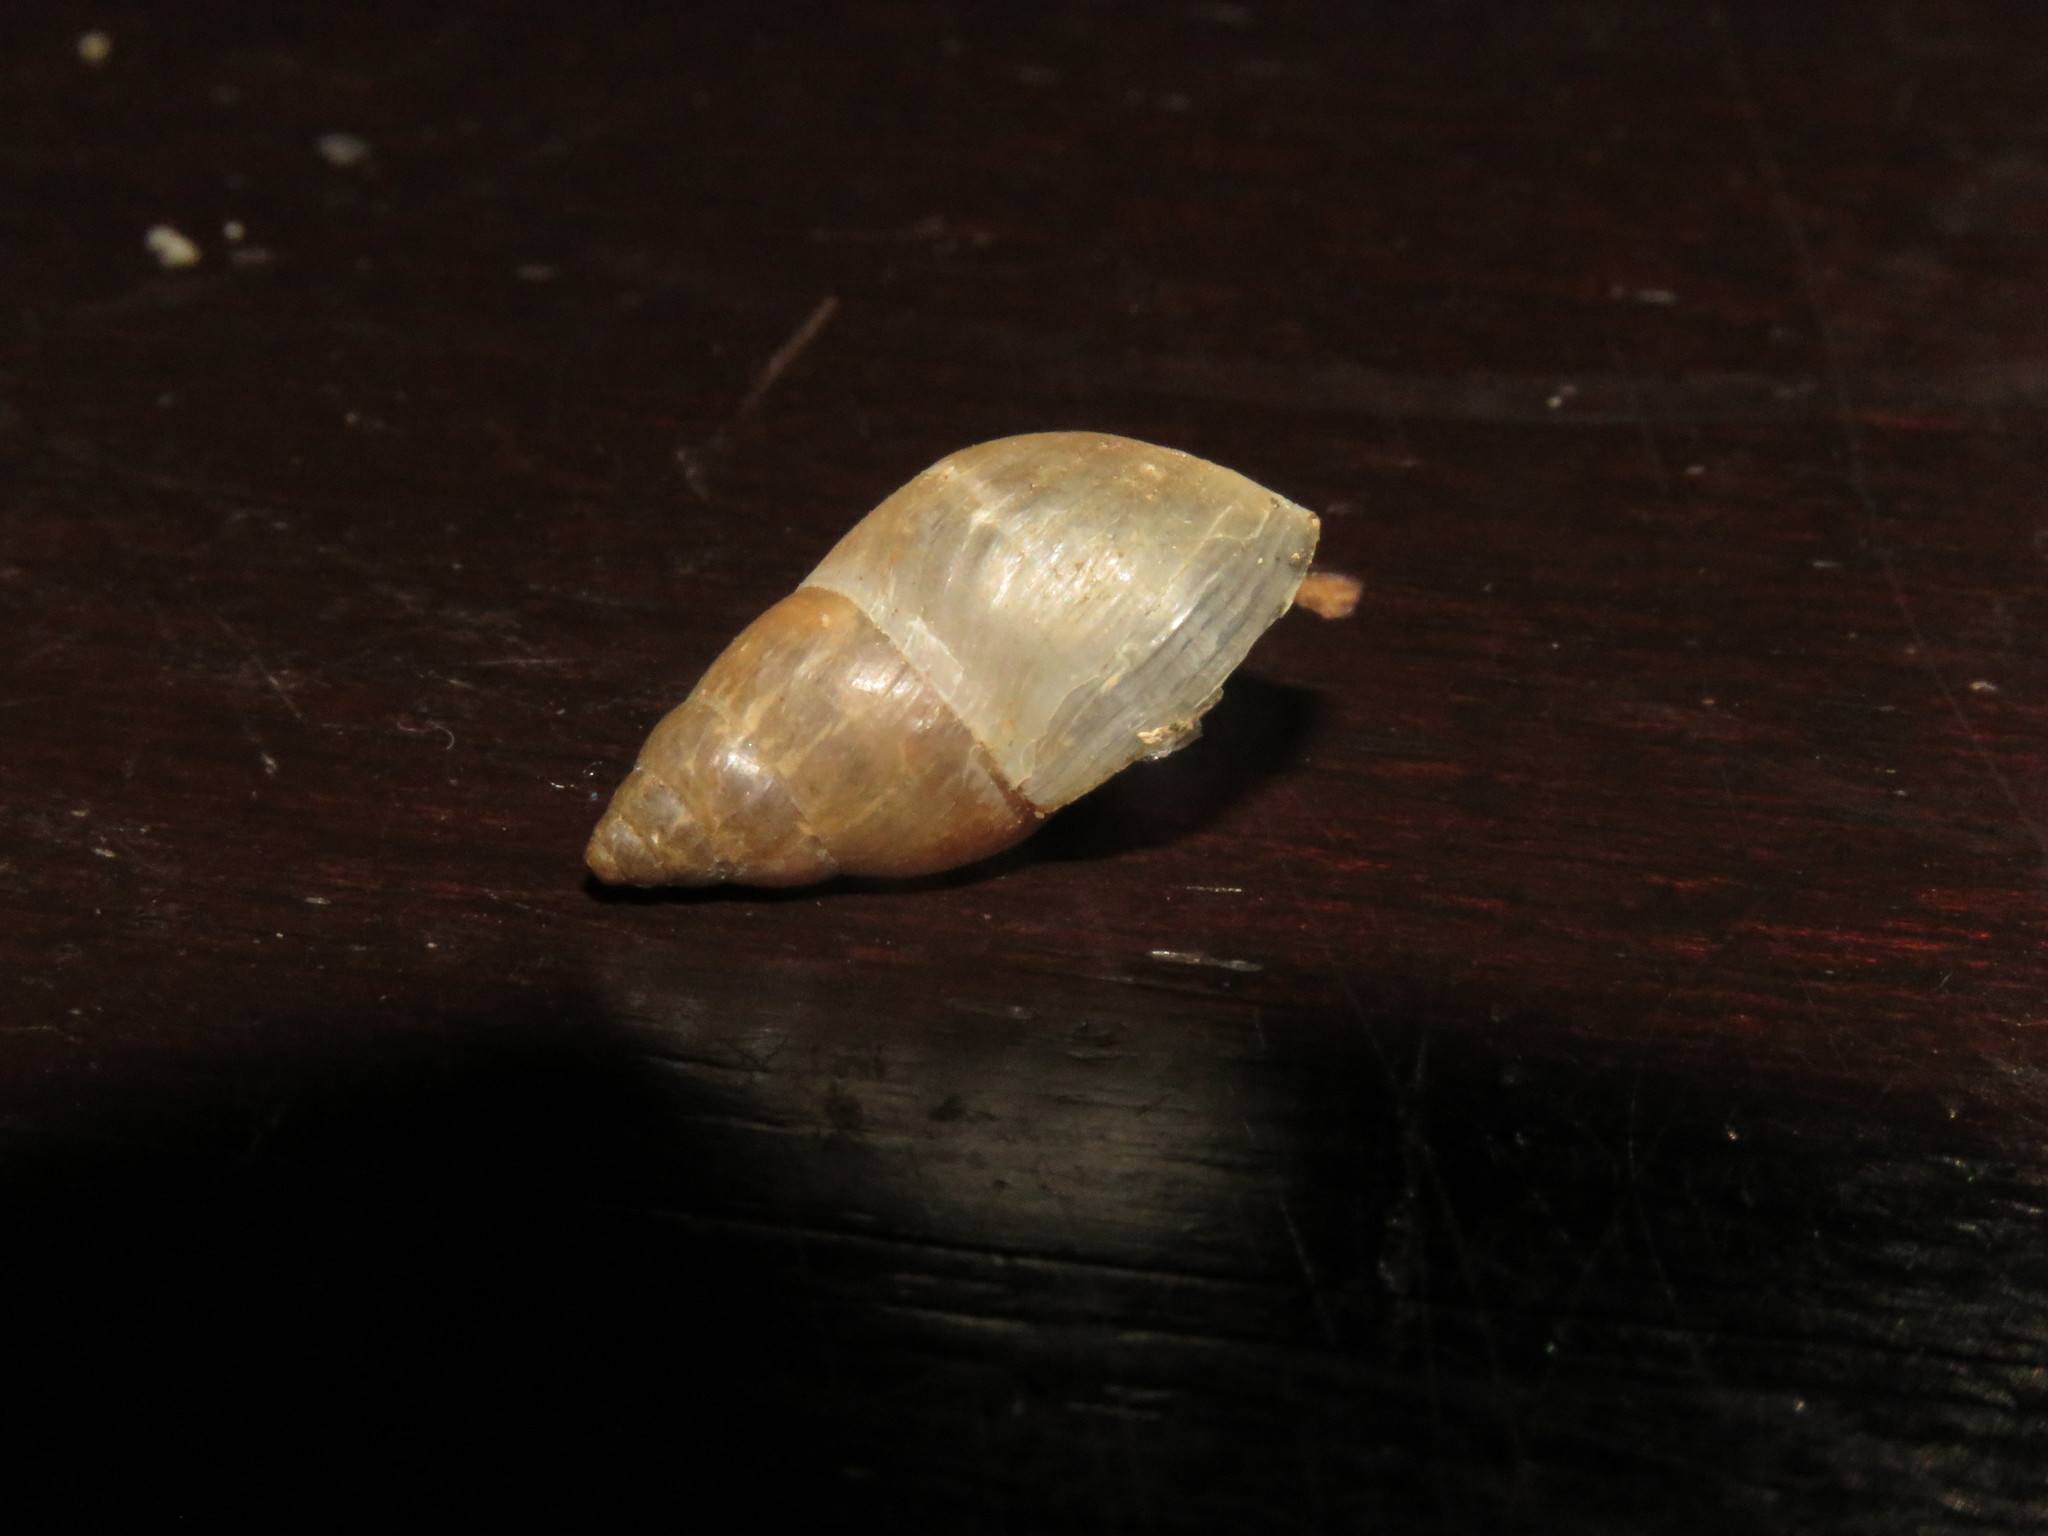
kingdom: Animalia
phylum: Mollusca
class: Gastropoda
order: Stylommatophora
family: Bulimulidae
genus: Bulimulus
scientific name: Bulimulus tenuissimus
